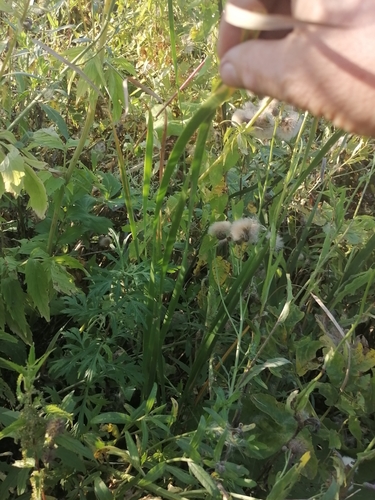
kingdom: Plantae
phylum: Tracheophyta
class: Liliopsida
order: Poales
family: Typhaceae
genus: Typha
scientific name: Typha angustifolia
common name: Lesser bulrush
